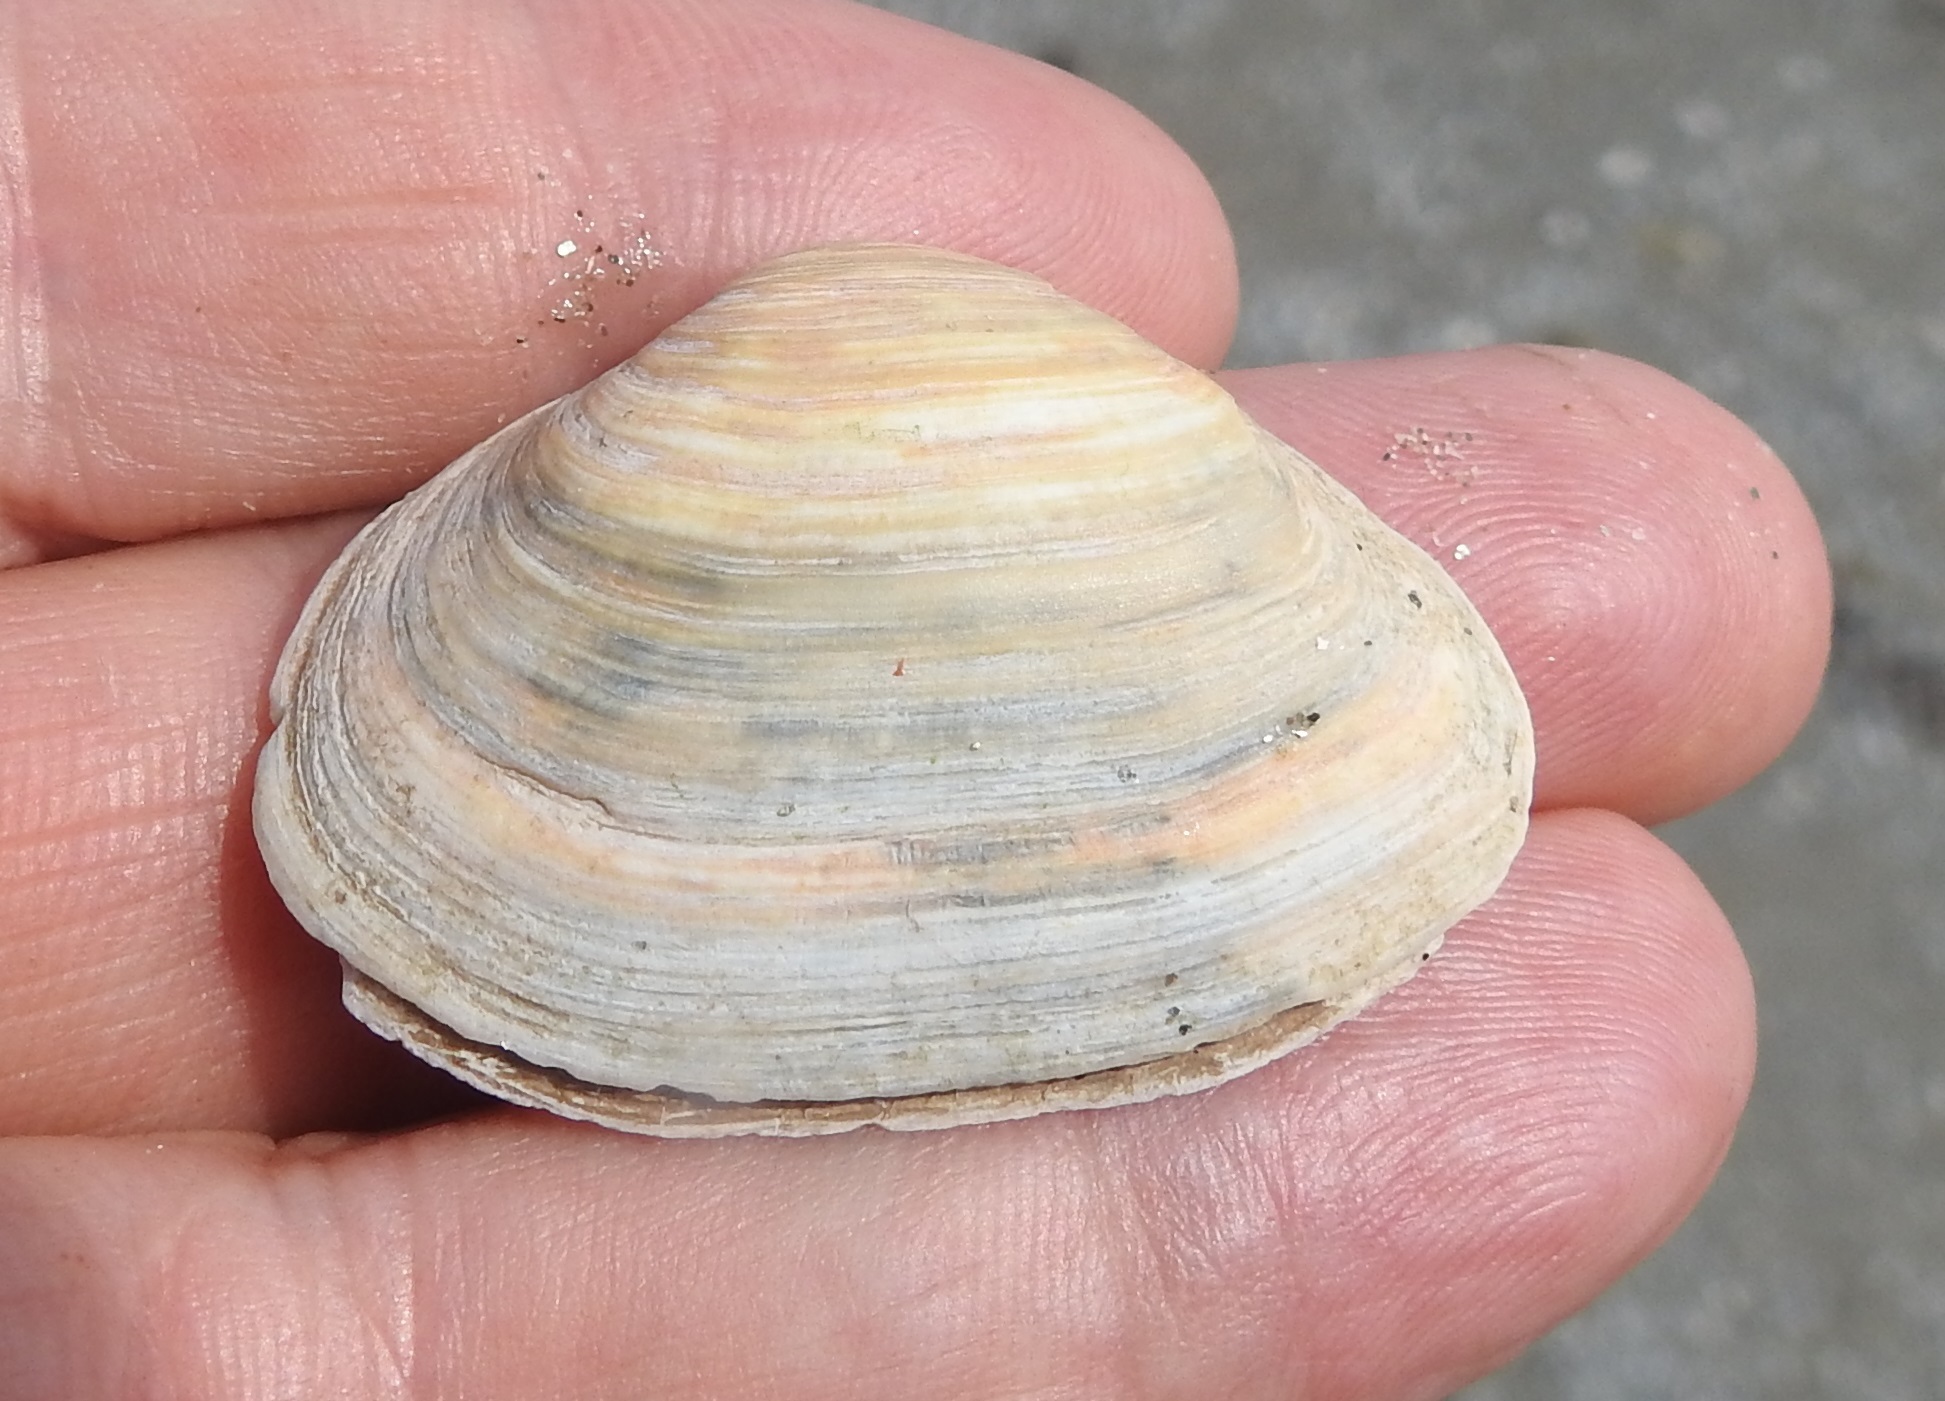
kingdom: Animalia
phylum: Mollusca
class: Bivalvia
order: Myida
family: Myidae
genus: Mya
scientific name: Mya arenaria
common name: Soft-shelled clam
